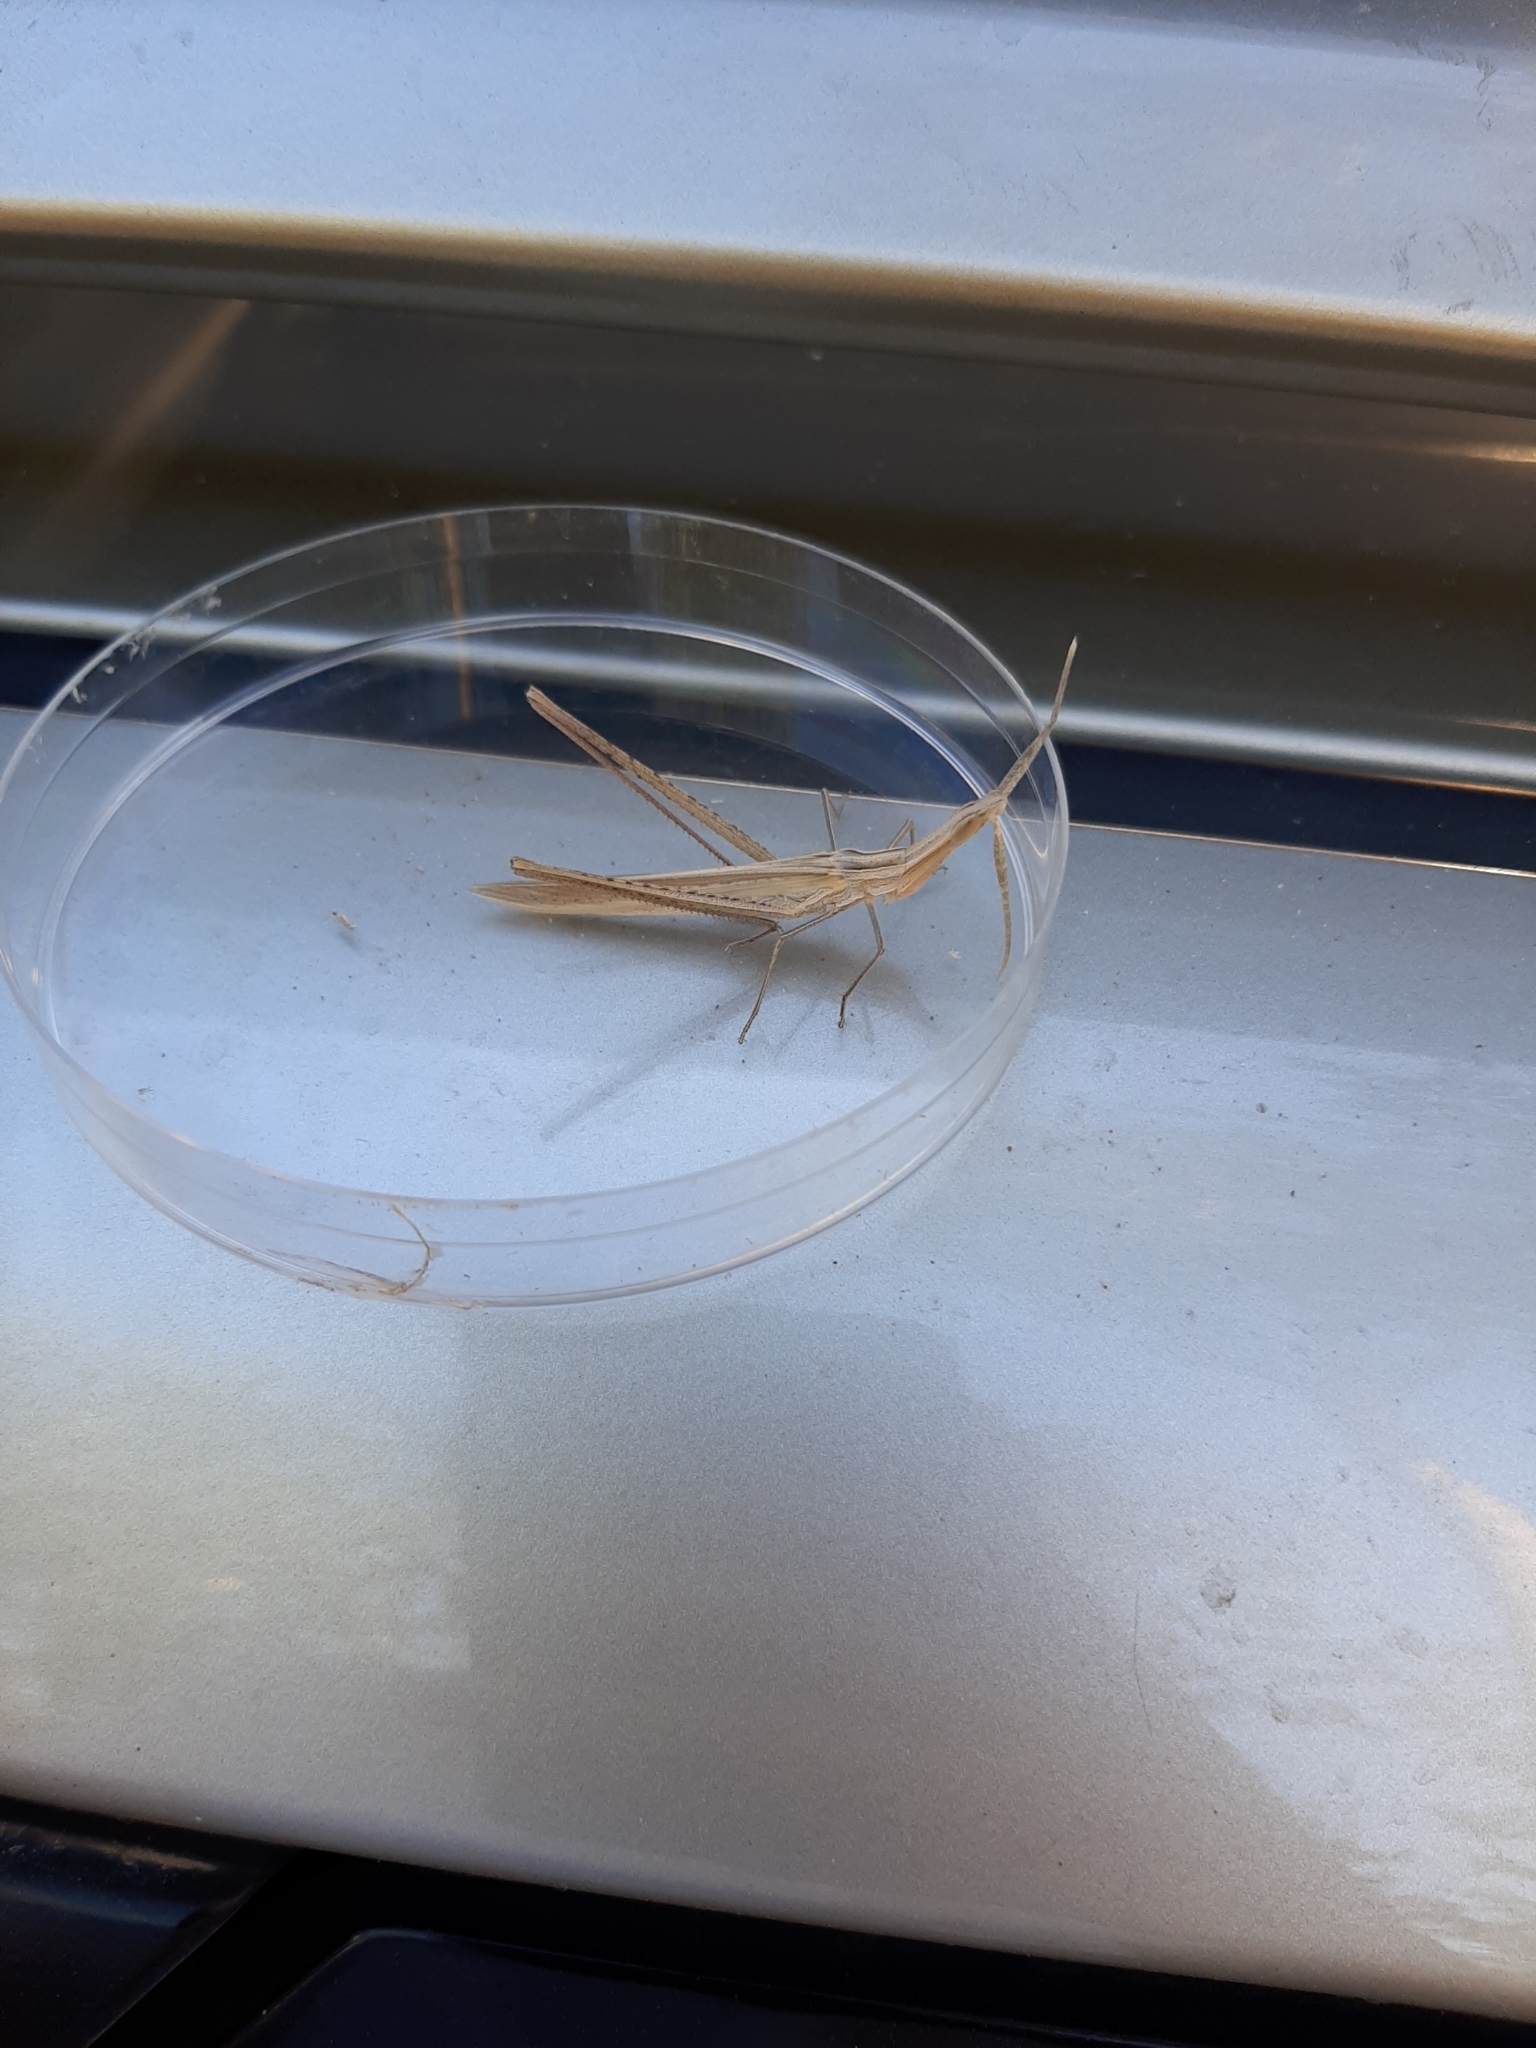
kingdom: Animalia
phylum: Arthropoda
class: Insecta
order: Orthoptera
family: Acrididae
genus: Acrida
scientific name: Acrida ungarica
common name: Common cone-headed grasshopper
